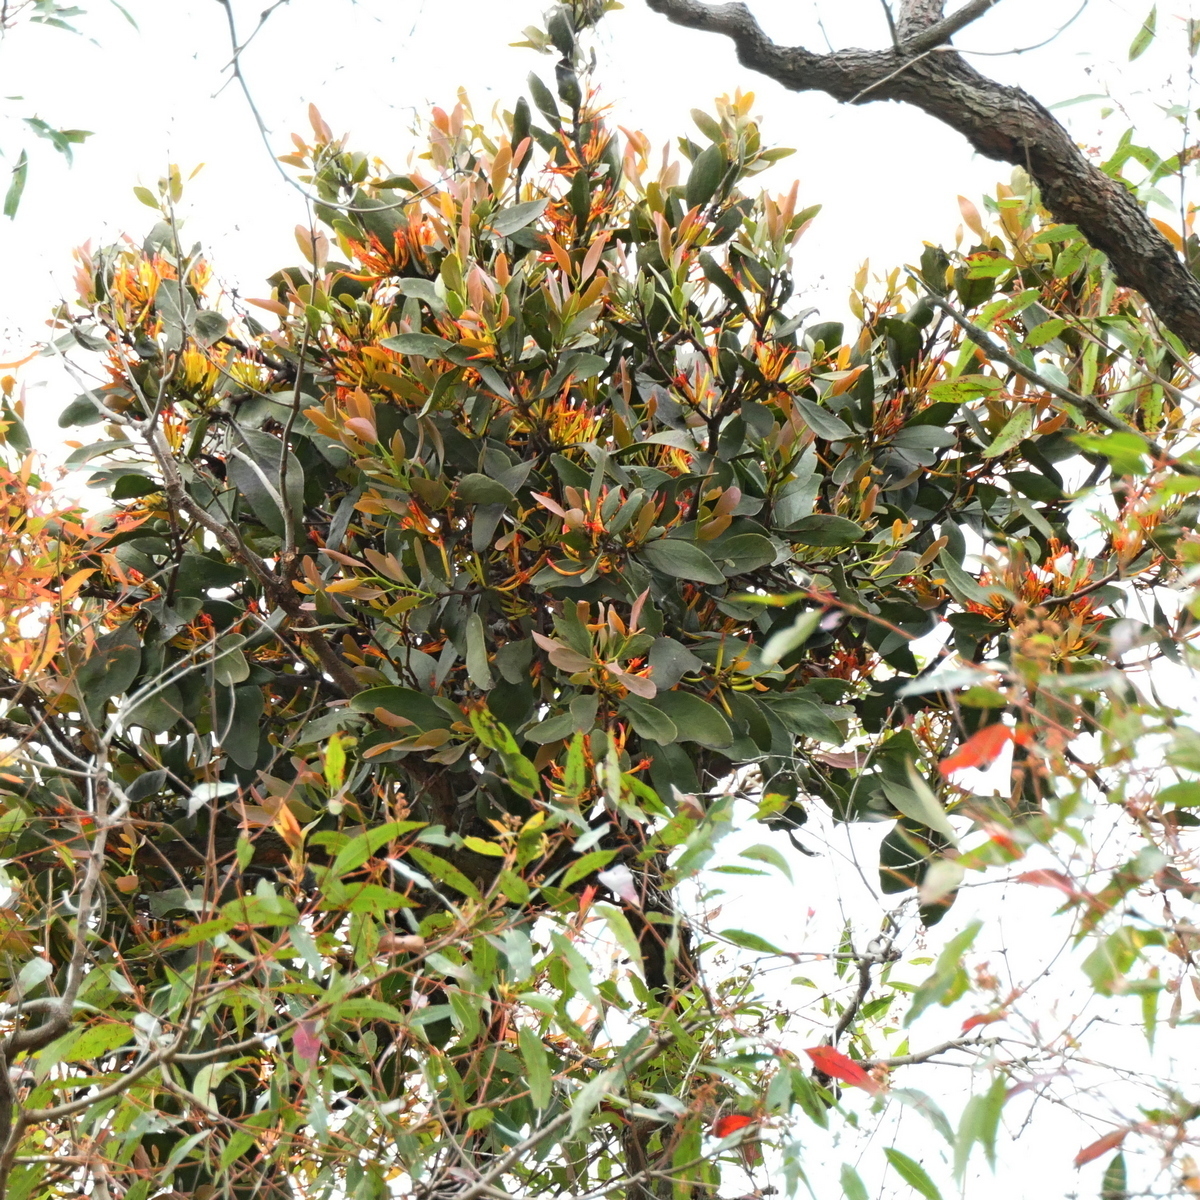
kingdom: Plantae
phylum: Tracheophyta
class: Magnoliopsida
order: Santalales
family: Loranthaceae
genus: Dendrophthoe
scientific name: Dendrophthoe vitellina
